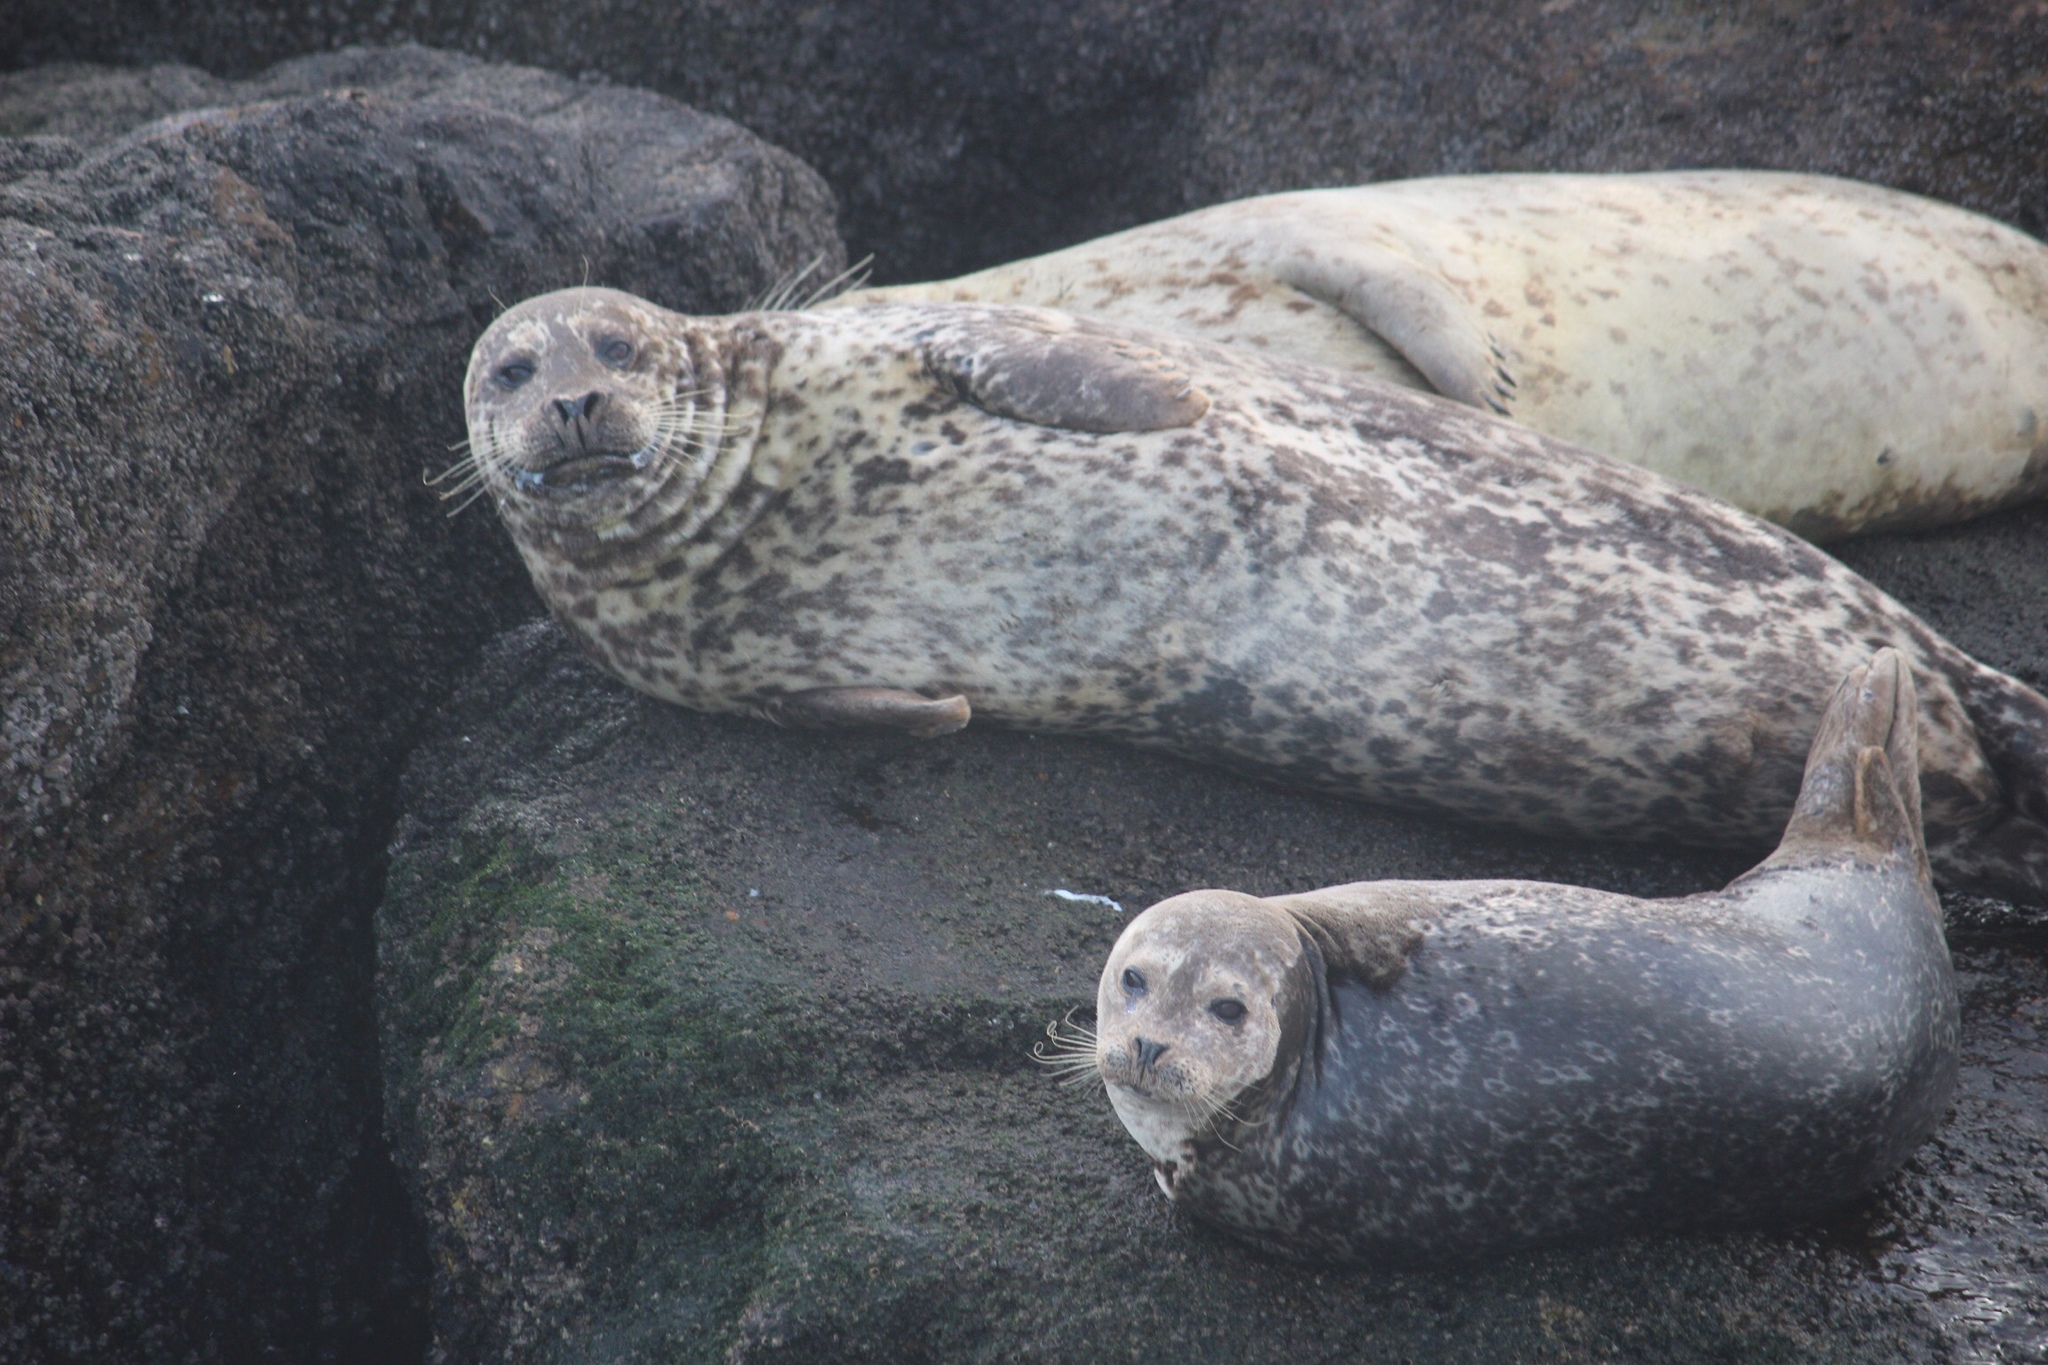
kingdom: Animalia
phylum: Chordata
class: Mammalia
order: Carnivora
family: Phocidae
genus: Phoca
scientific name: Phoca vitulina
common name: Harbor seal
